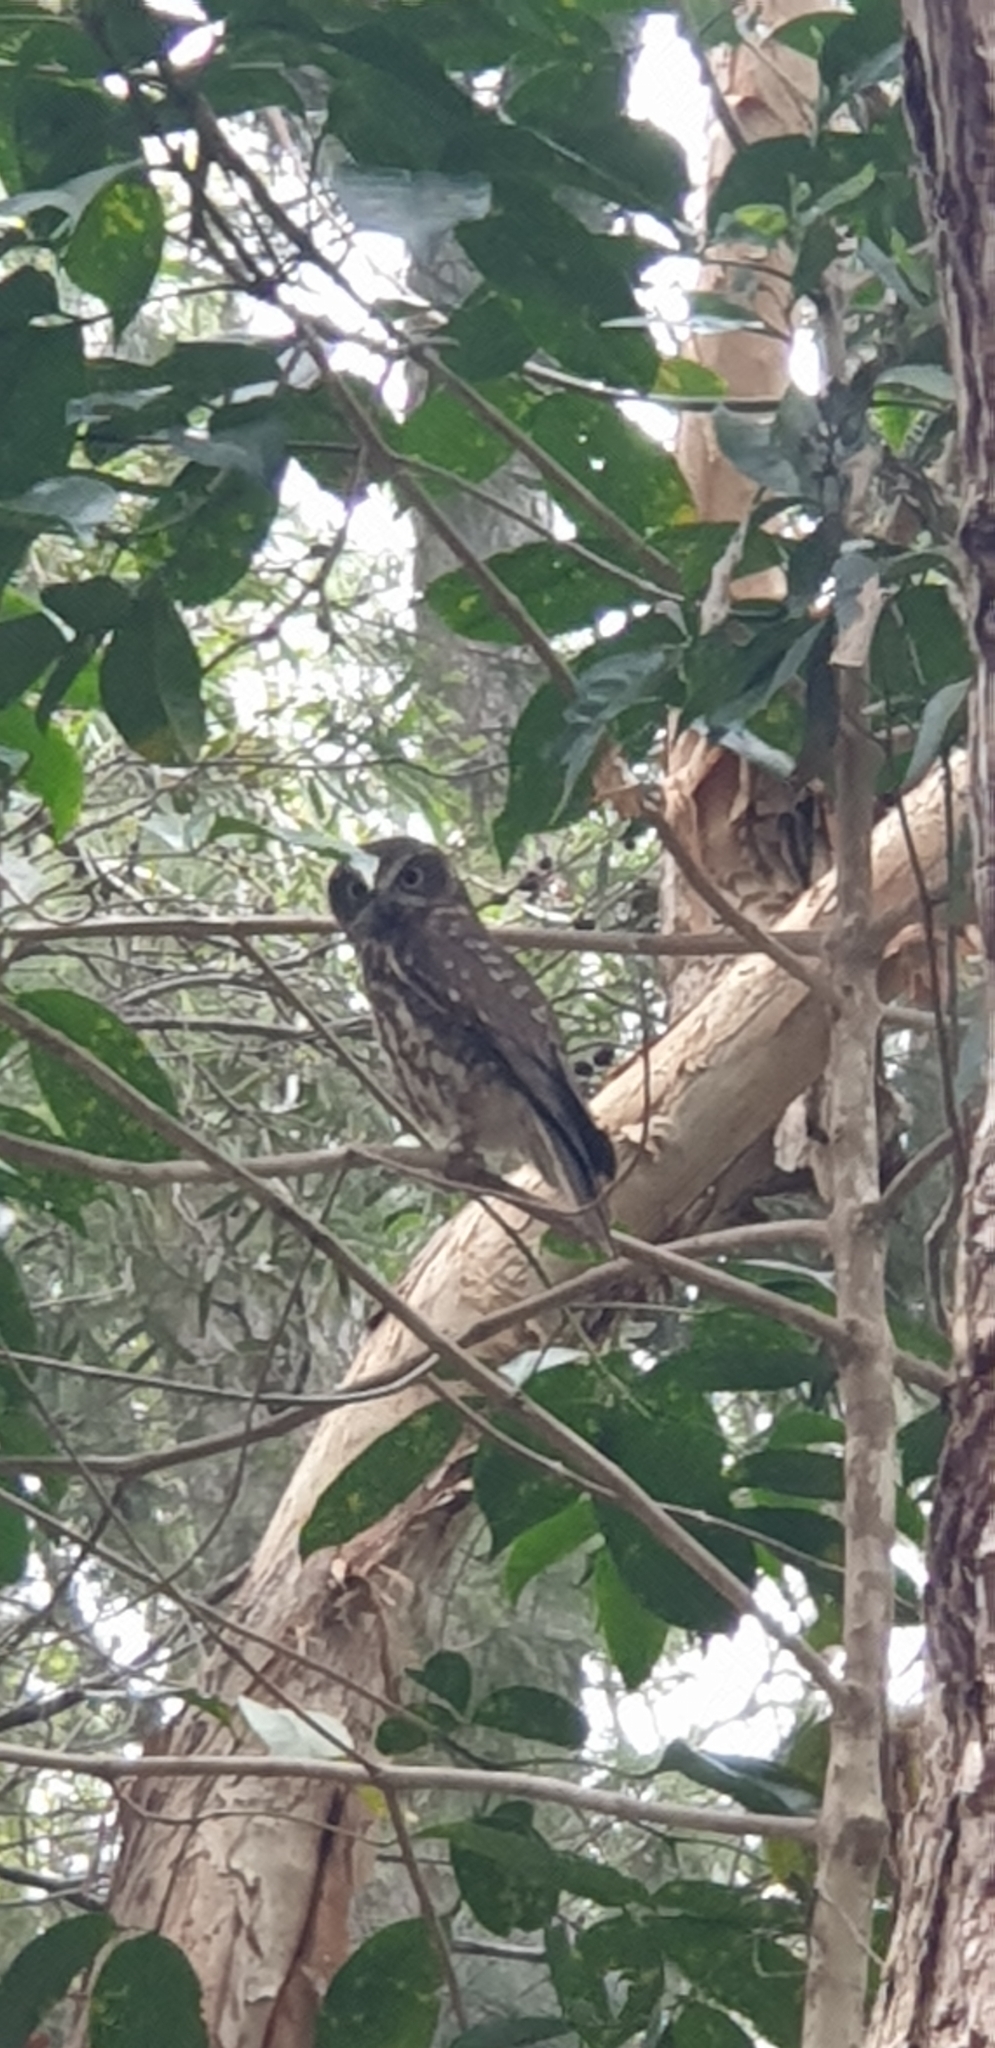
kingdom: Animalia
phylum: Chordata
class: Aves
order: Strigiformes
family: Strigidae
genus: Ninox
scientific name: Ninox boobook
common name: Southern boobook
